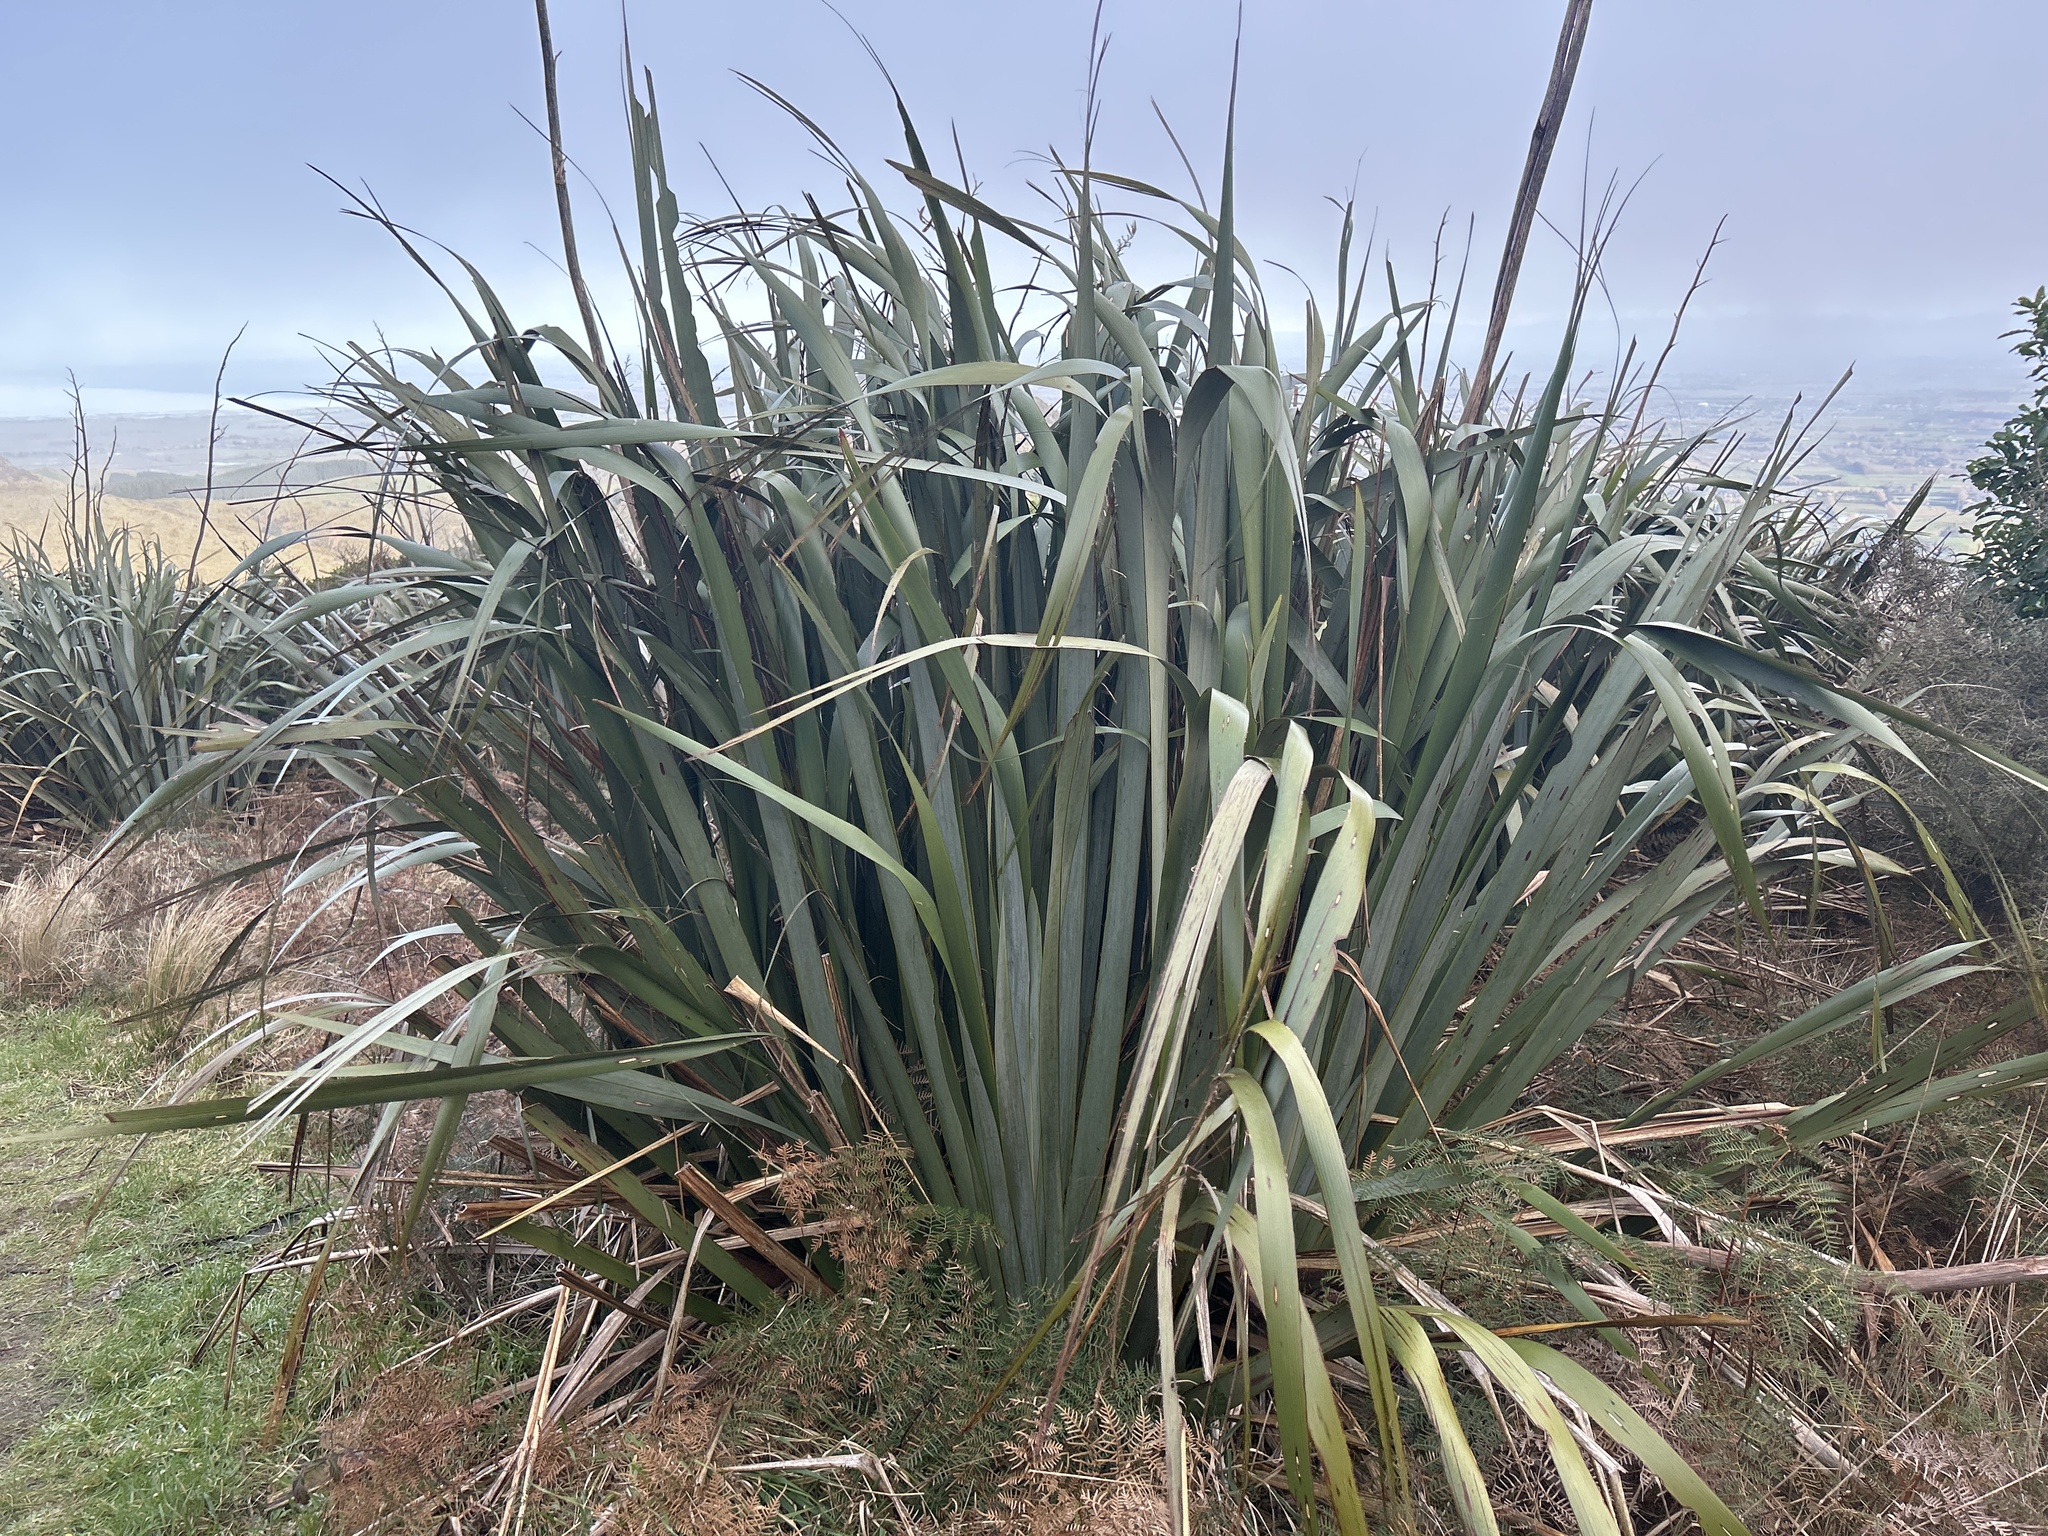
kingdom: Plantae
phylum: Tracheophyta
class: Liliopsida
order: Asparagales
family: Asphodelaceae
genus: Phormium
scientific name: Phormium tenax
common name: New zealand flax
